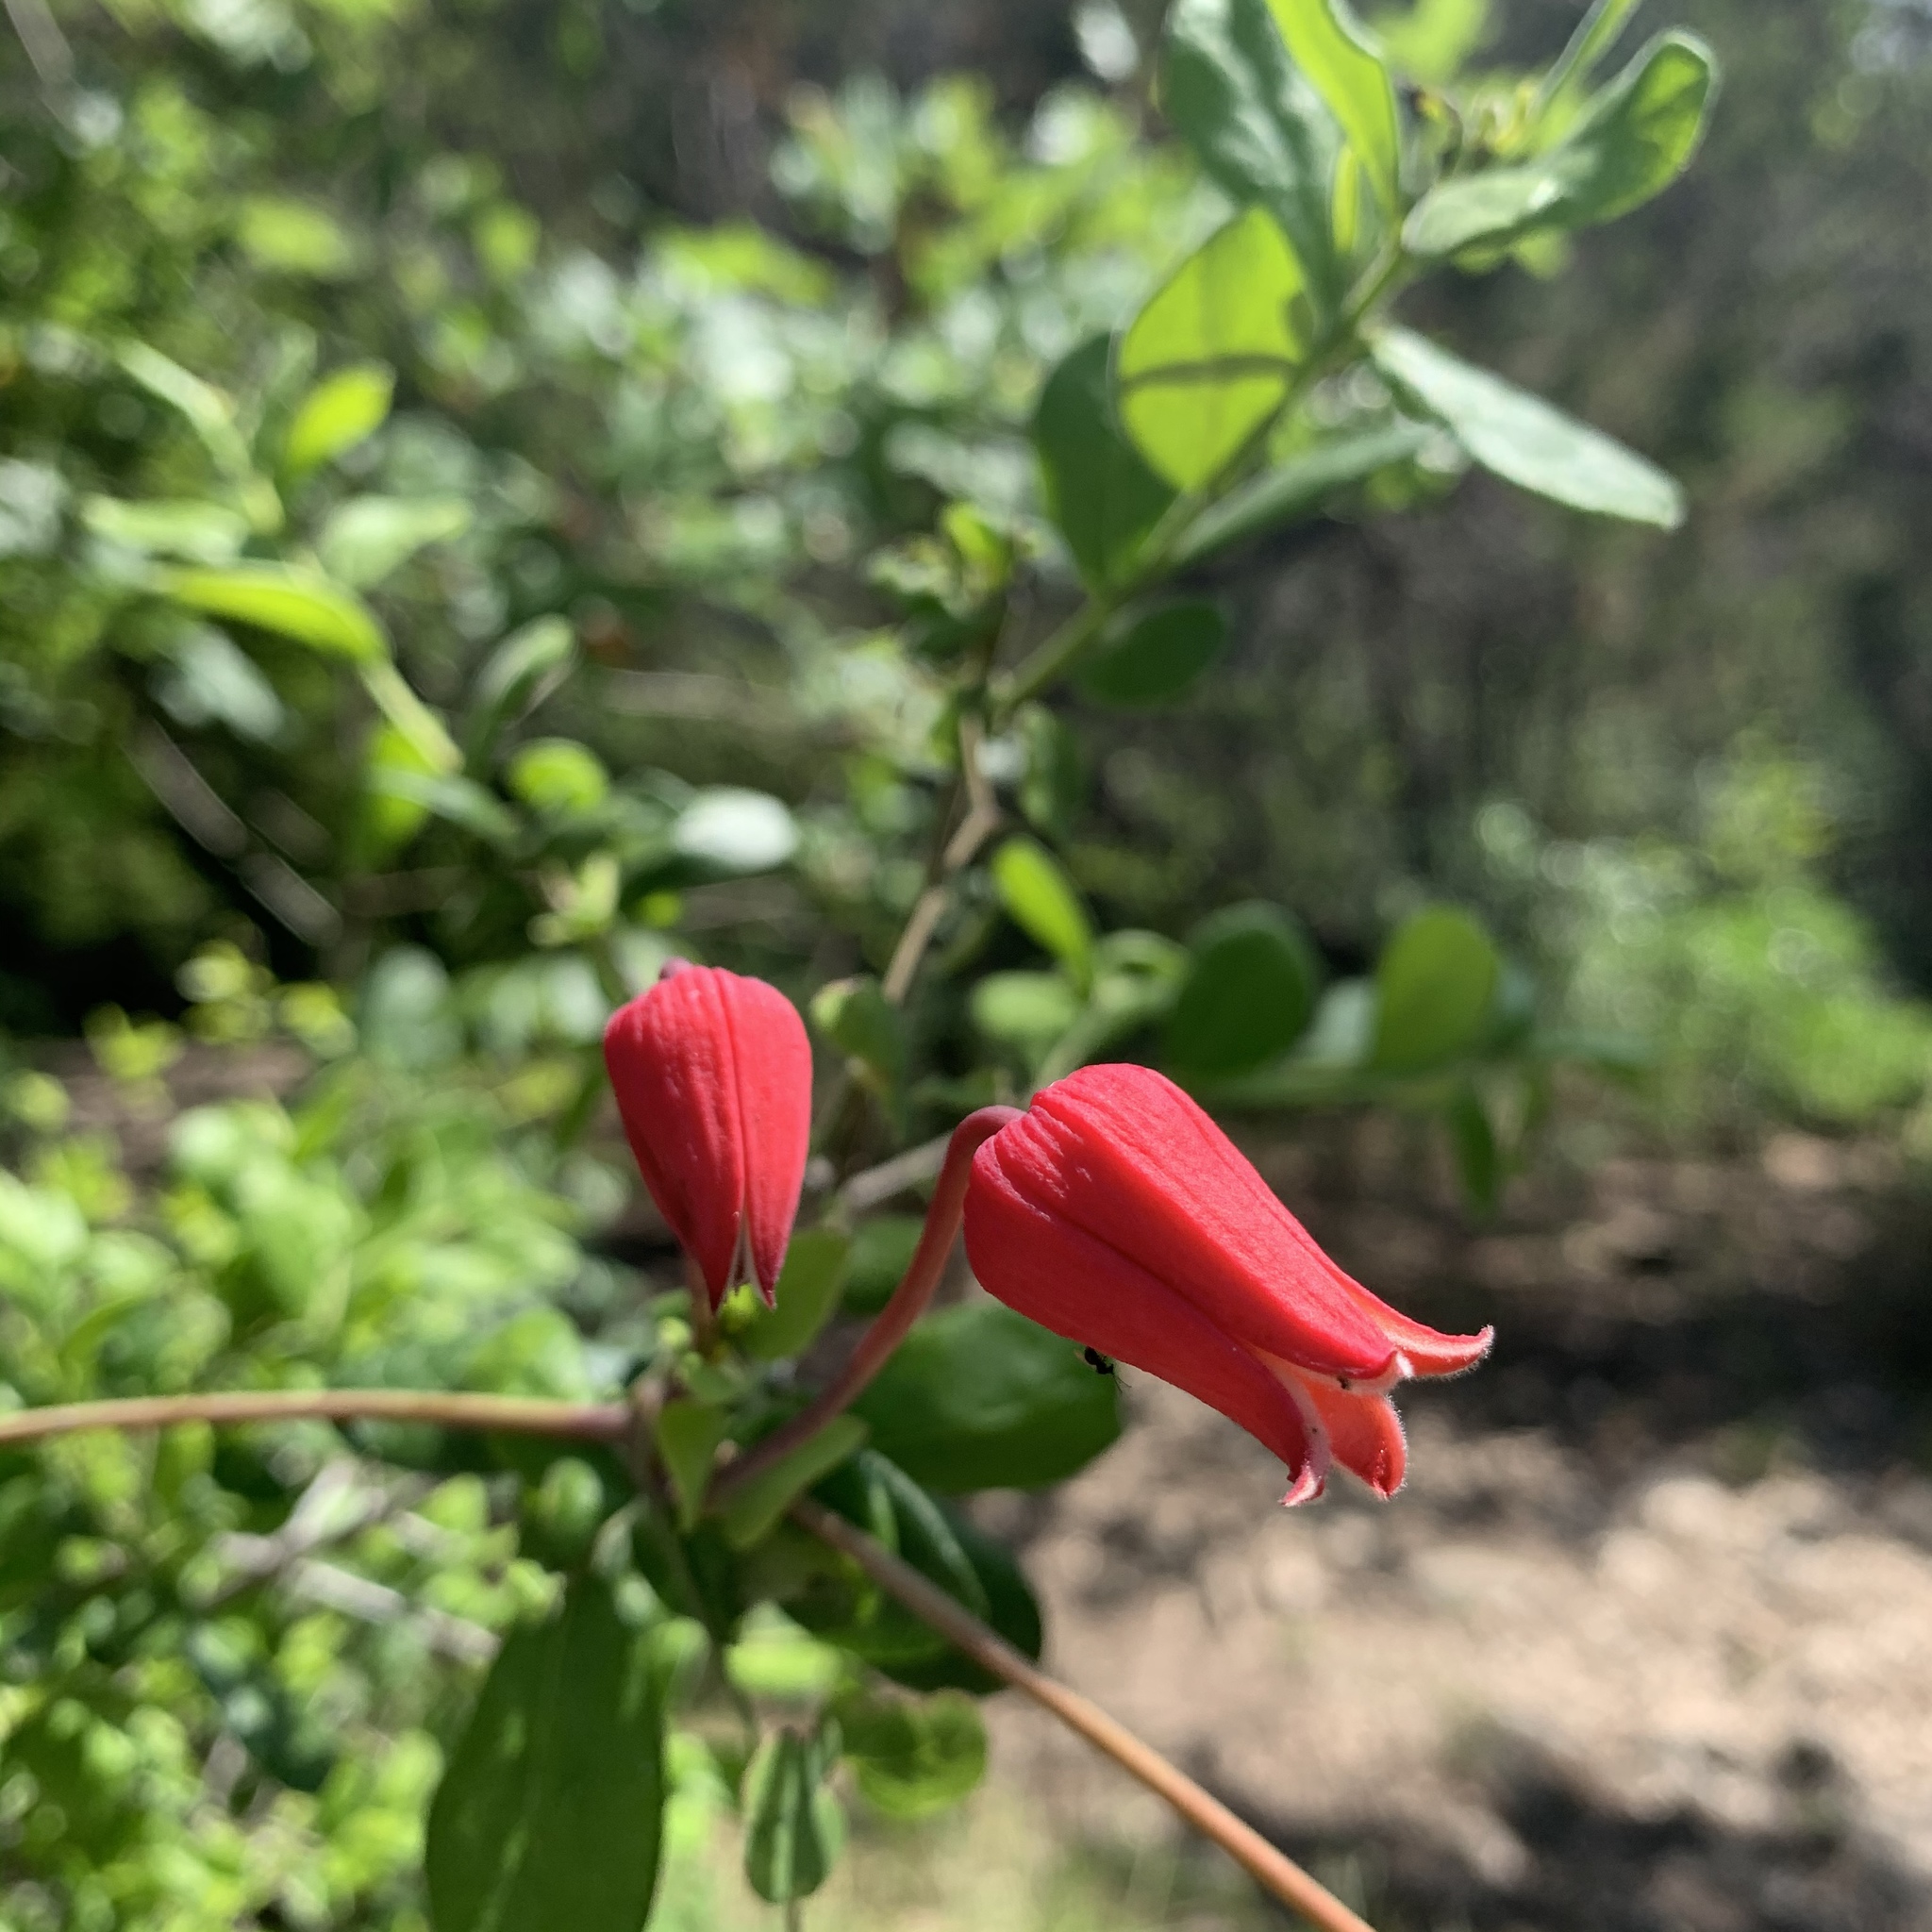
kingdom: Plantae
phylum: Tracheophyta
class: Magnoliopsida
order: Ranunculales
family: Ranunculaceae
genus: Clematis
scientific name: Clematis texensis
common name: Crimson clematis
